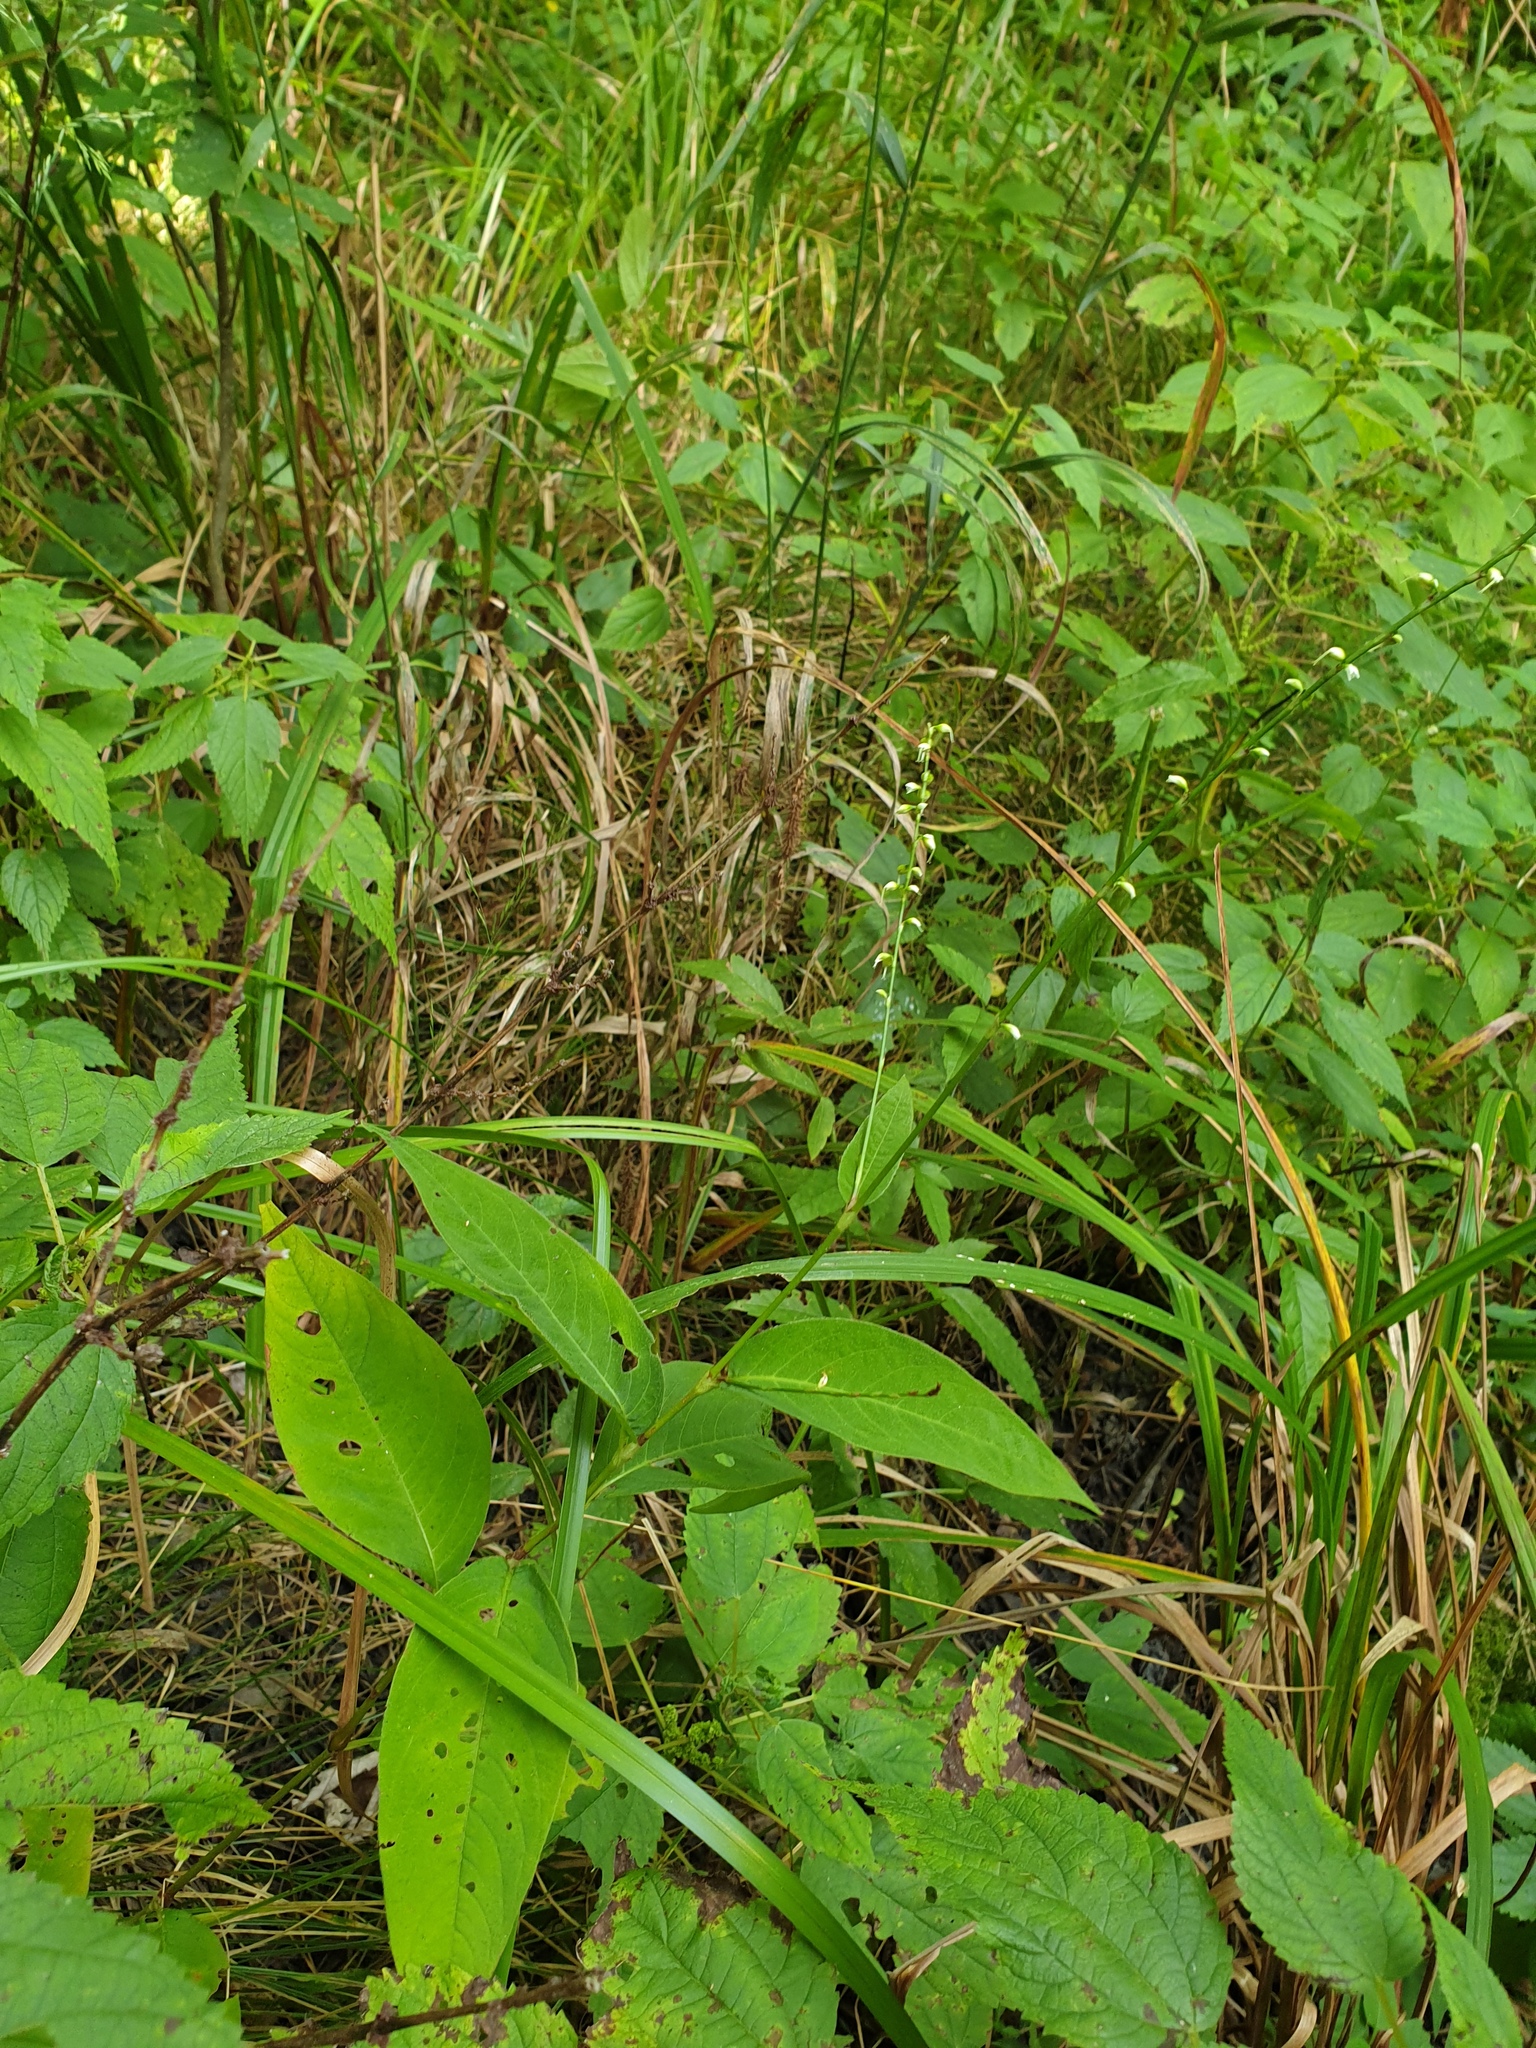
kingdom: Plantae
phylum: Tracheophyta
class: Magnoliopsida
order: Caryophyllales
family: Polygonaceae
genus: Persicaria
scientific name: Persicaria virginiana
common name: Jumpseed
